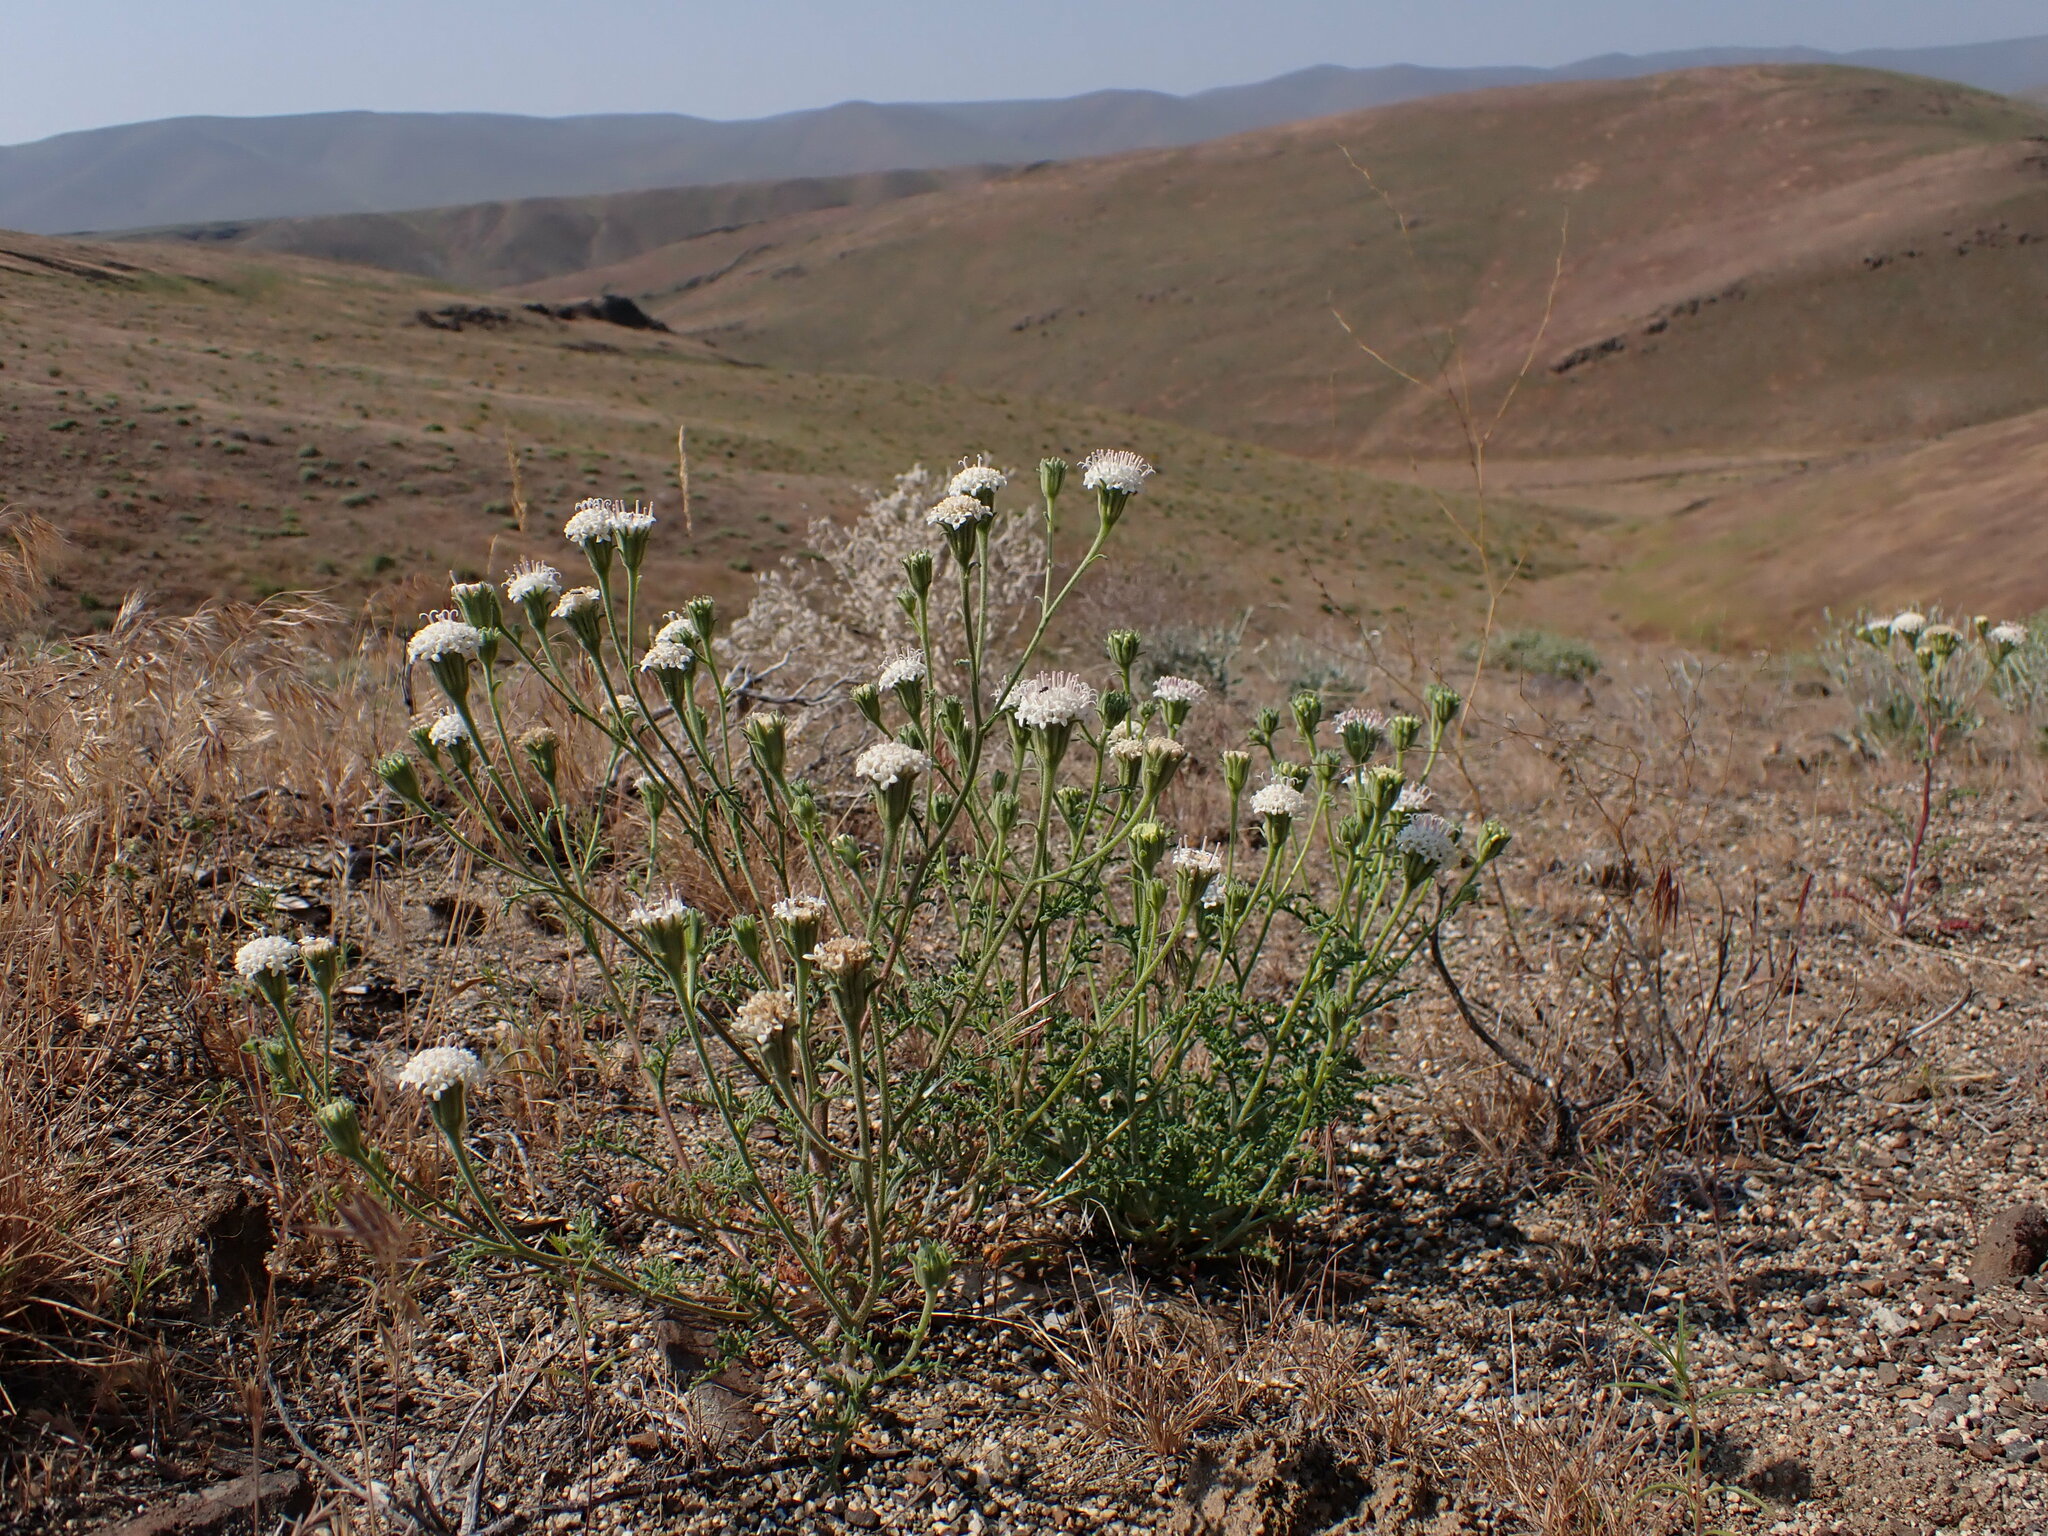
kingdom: Plantae
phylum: Tracheophyta
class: Magnoliopsida
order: Asterales
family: Asteraceae
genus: Chaenactis
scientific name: Chaenactis douglasii
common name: Hoary pincushion
